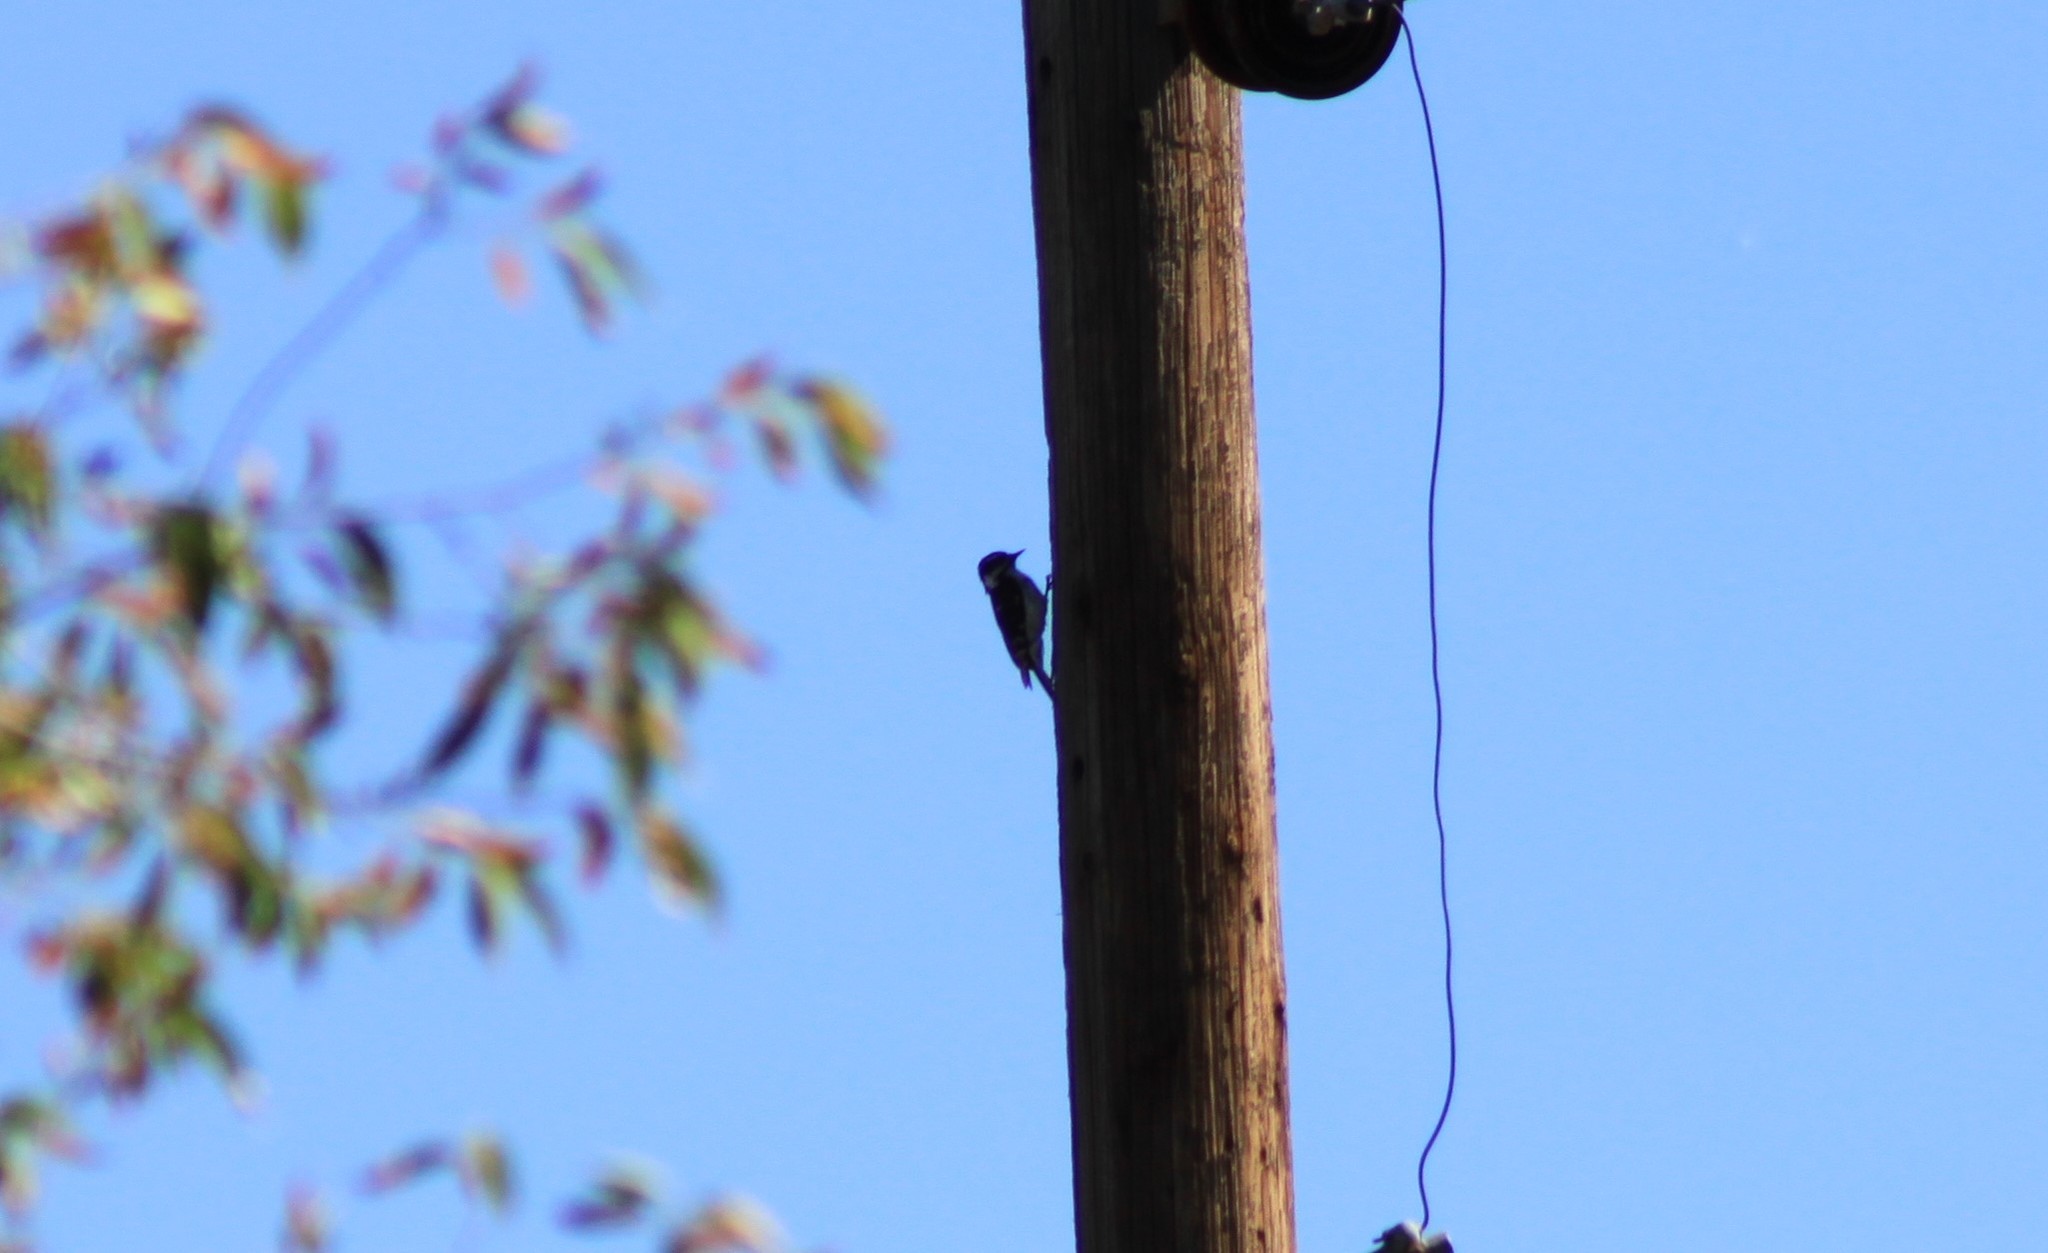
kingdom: Animalia
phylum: Chordata
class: Aves
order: Piciformes
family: Picidae
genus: Dryobates
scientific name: Dryobates pubescens
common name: Downy woodpecker
